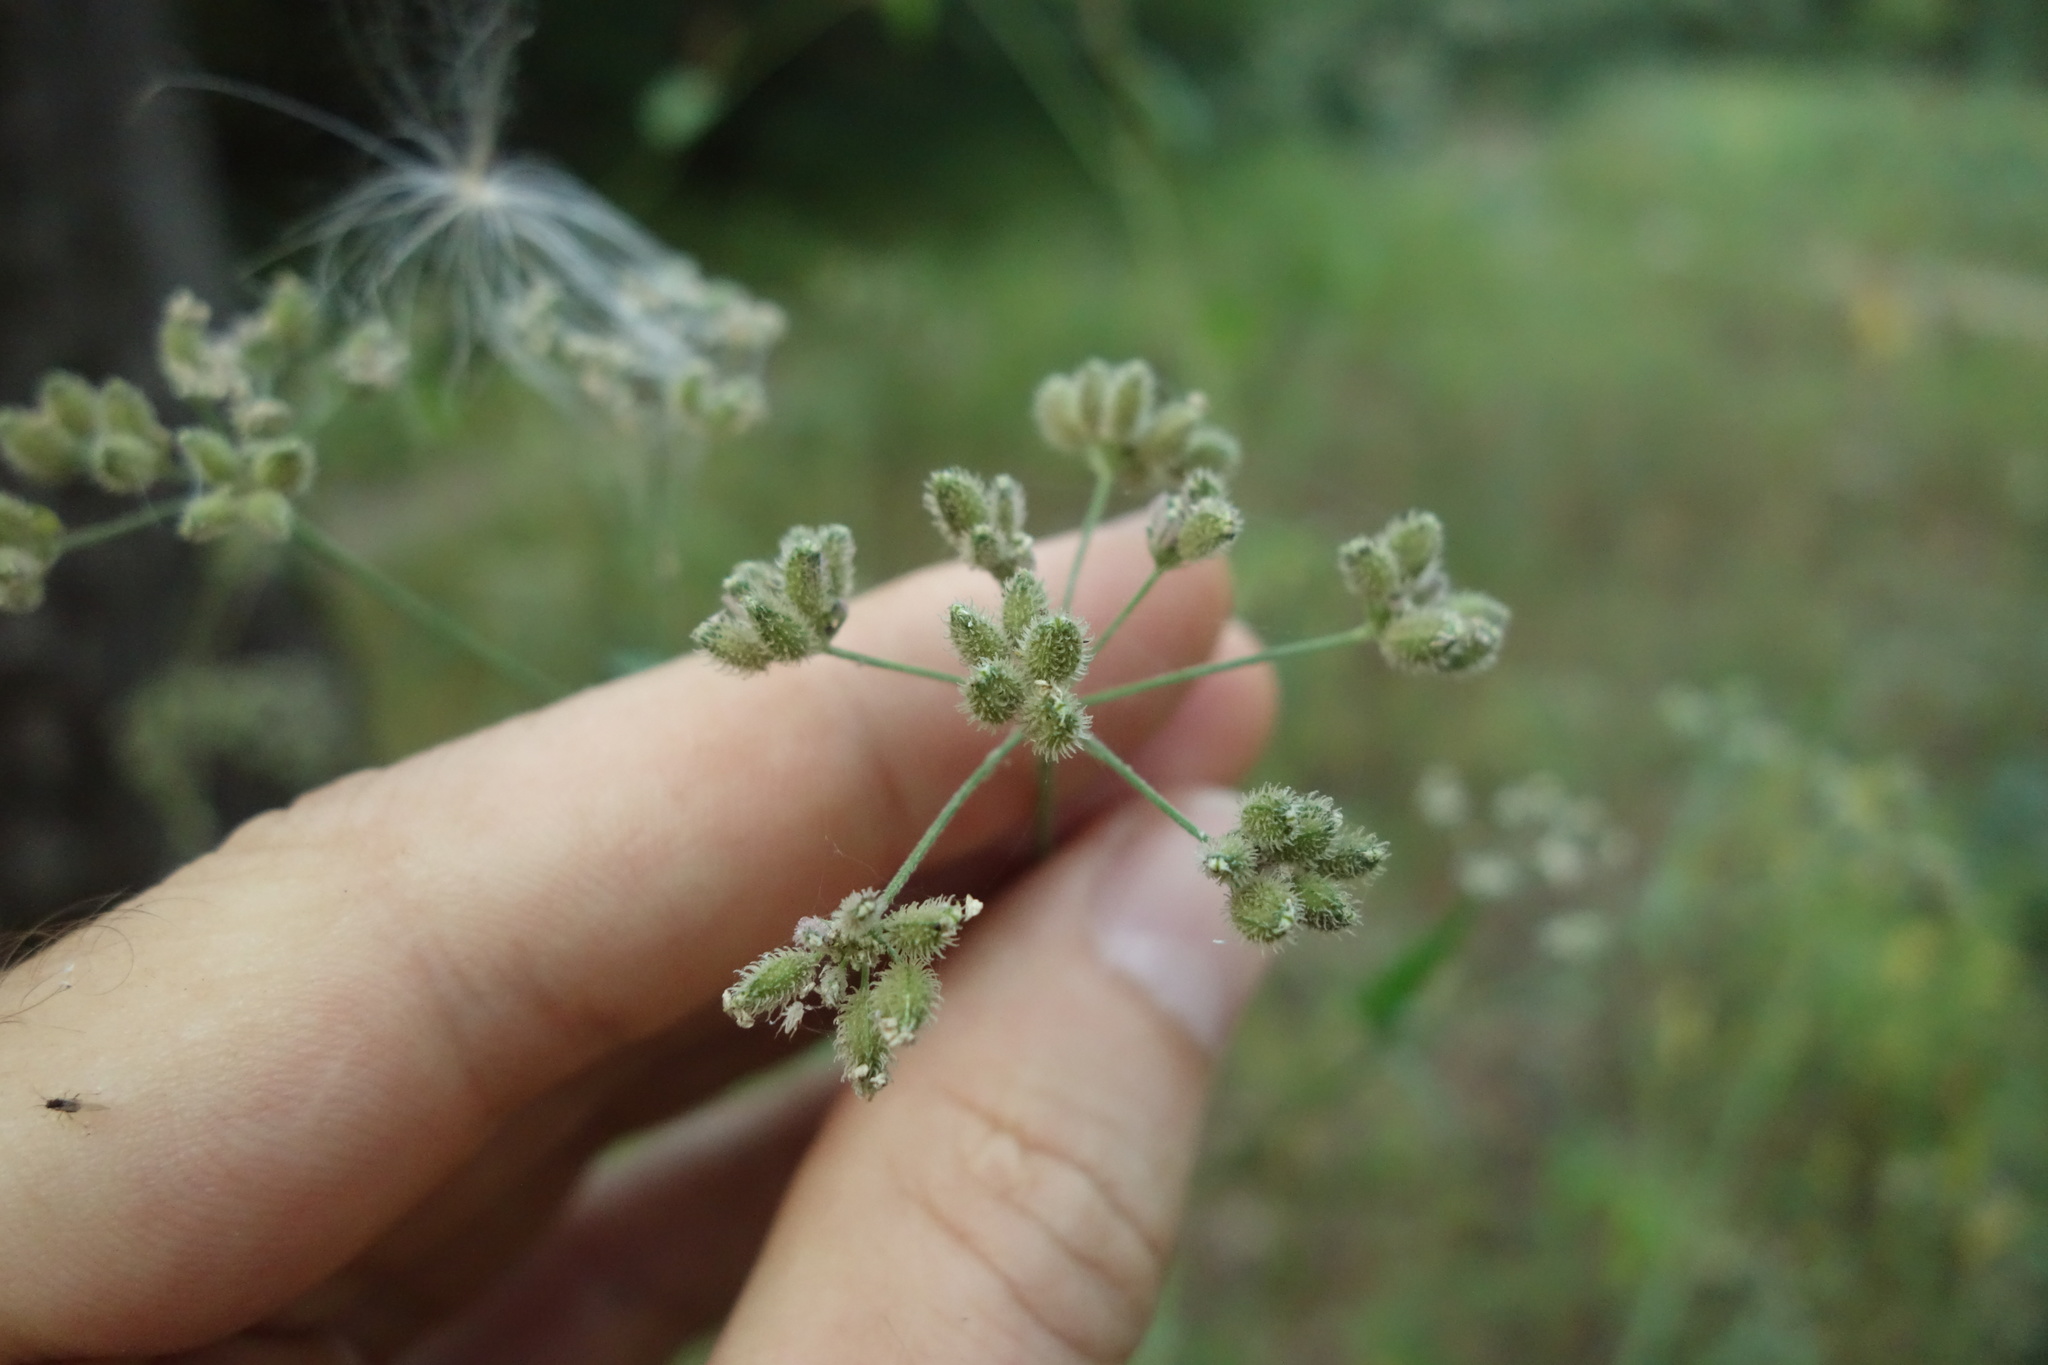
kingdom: Plantae
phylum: Tracheophyta
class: Magnoliopsida
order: Apiales
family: Apiaceae
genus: Torilis
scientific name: Torilis japonica
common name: Upright hedge-parsley
